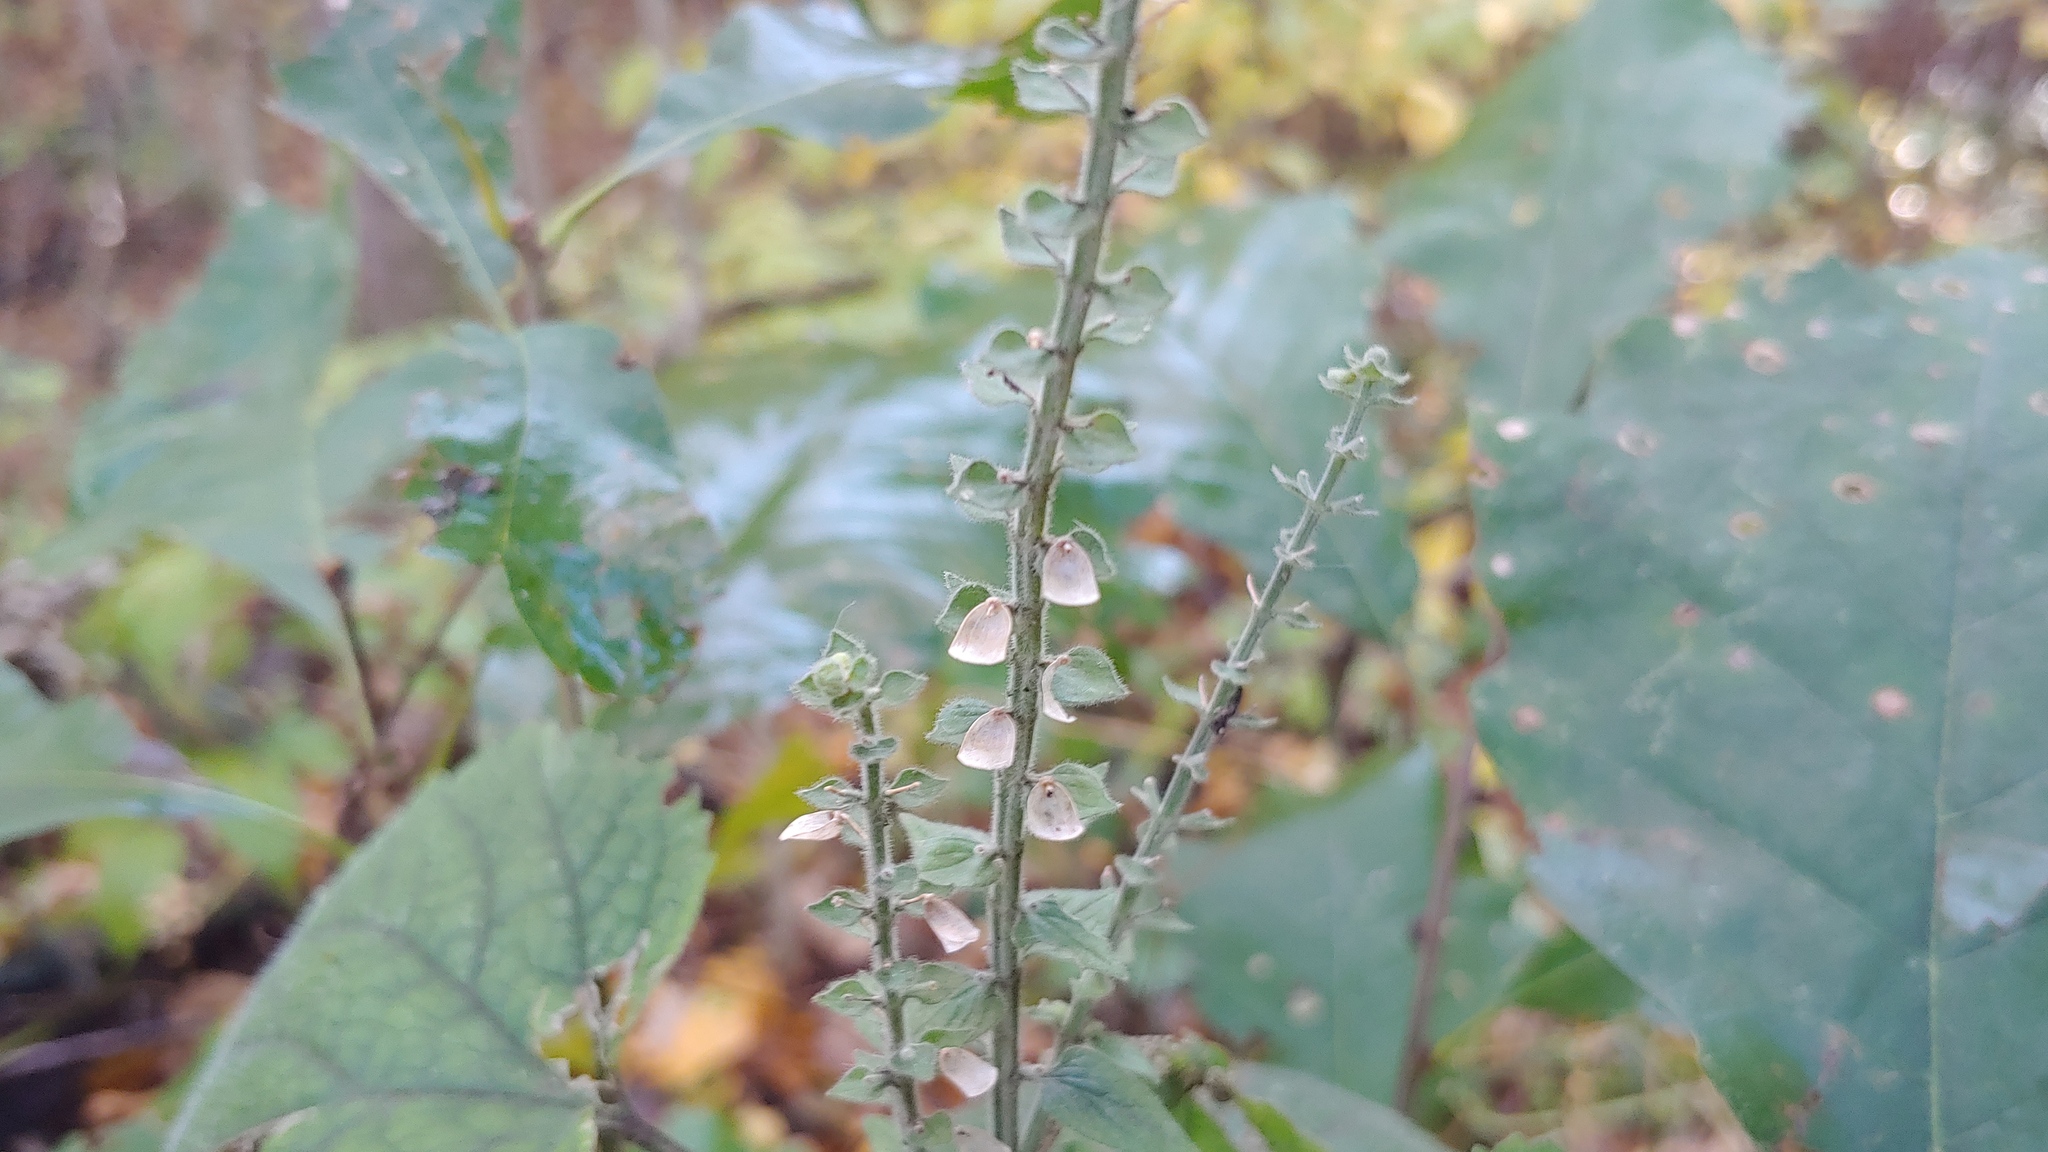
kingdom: Plantae
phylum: Tracheophyta
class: Magnoliopsida
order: Lamiales
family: Lamiaceae
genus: Scutellaria
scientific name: Scutellaria ovata
